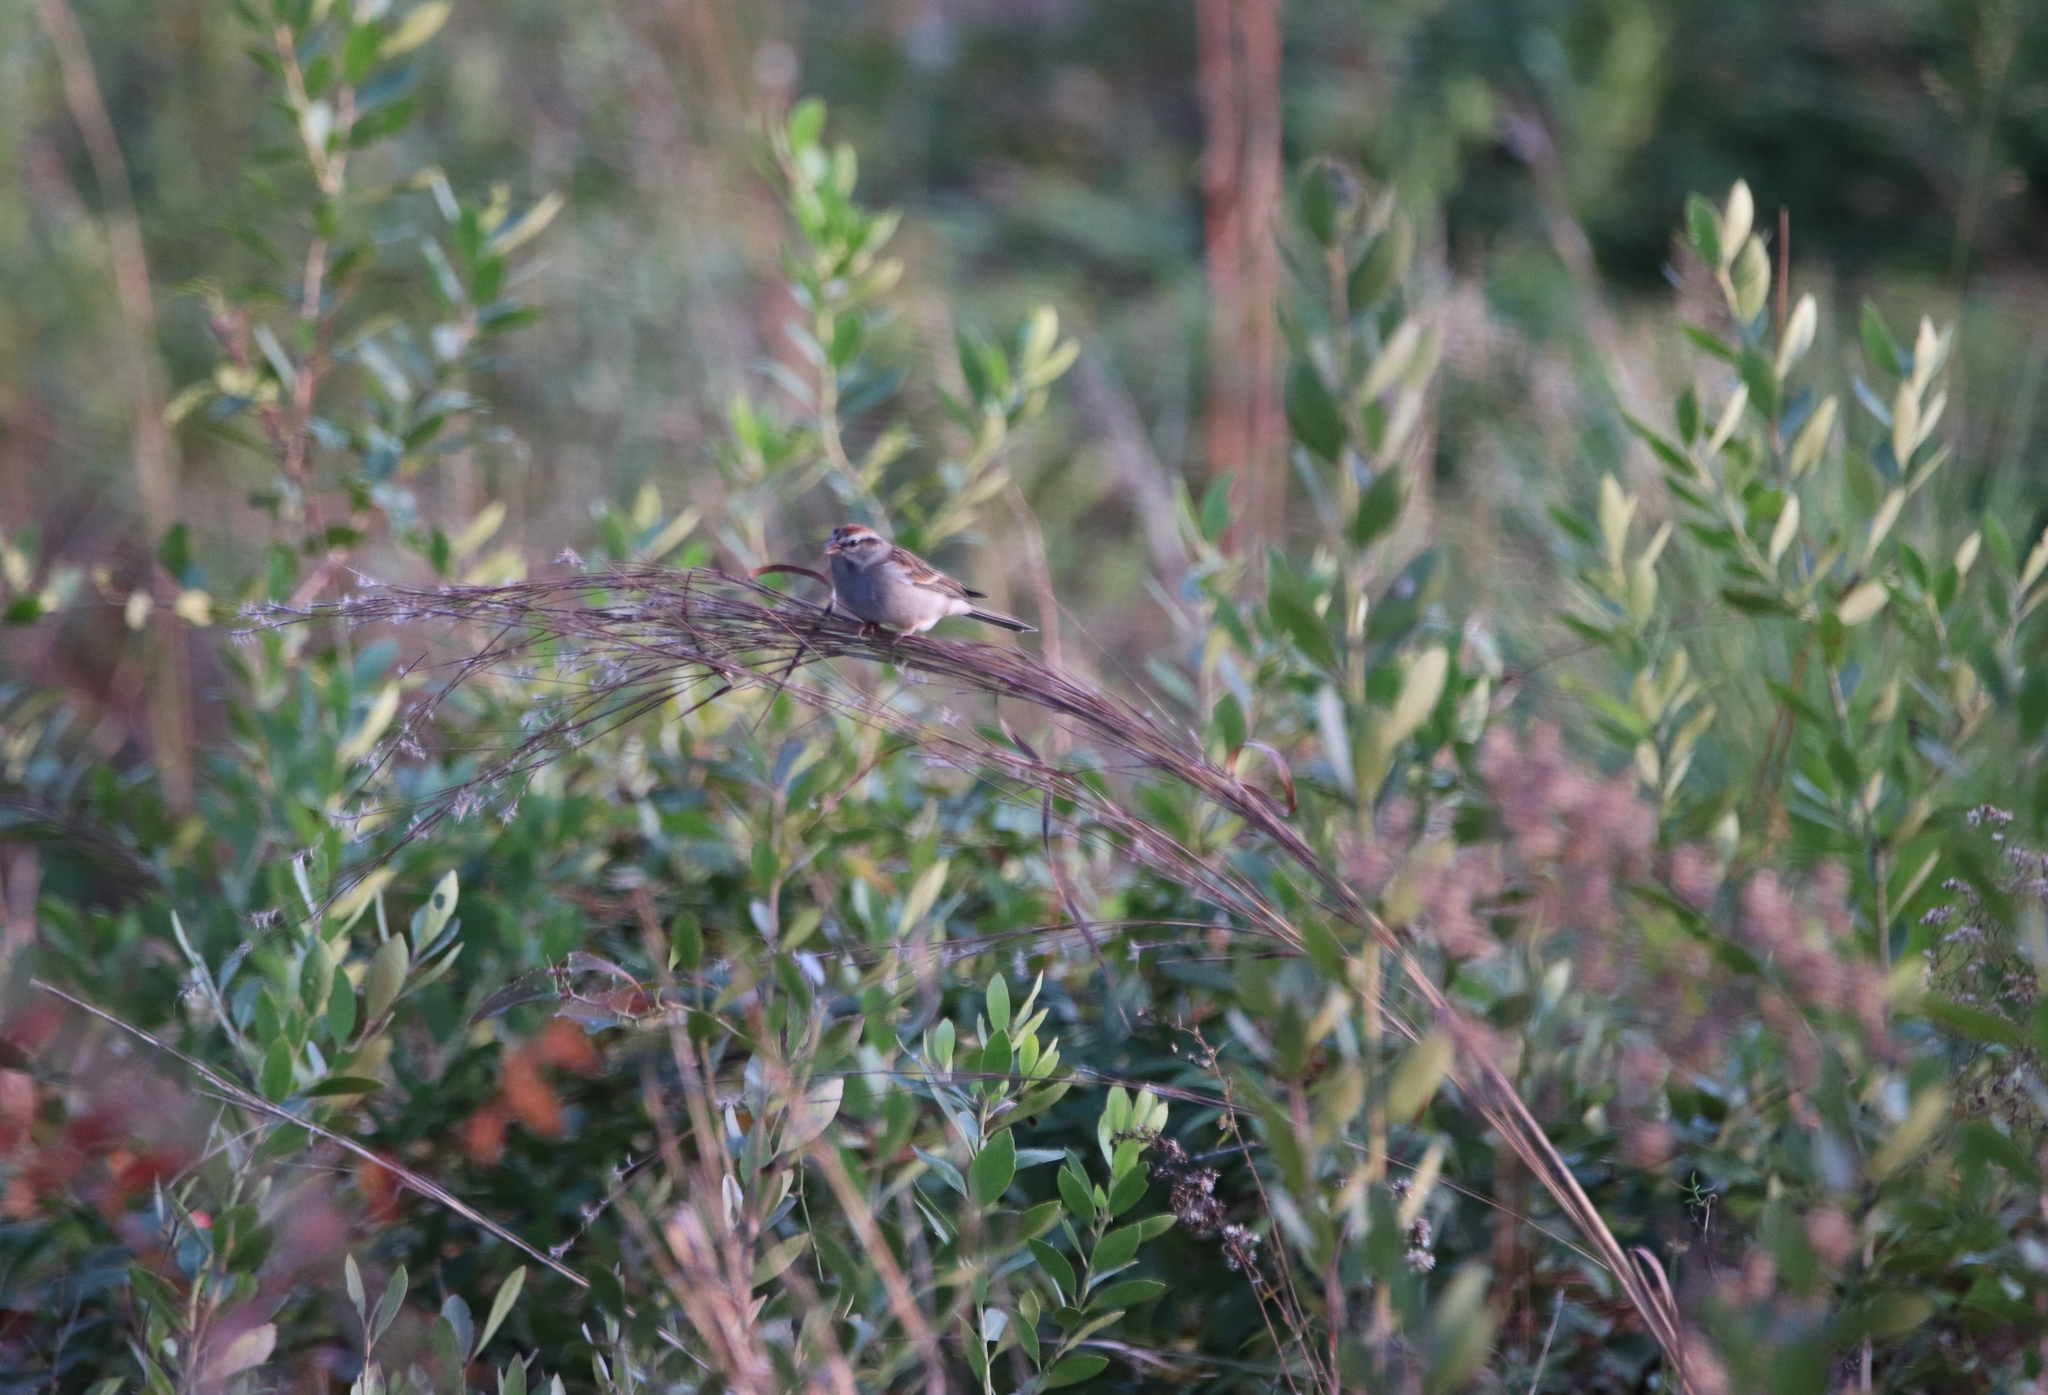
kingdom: Animalia
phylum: Chordata
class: Aves
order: Passeriformes
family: Passerellidae
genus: Spizella
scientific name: Spizella passerina
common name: Chipping sparrow
